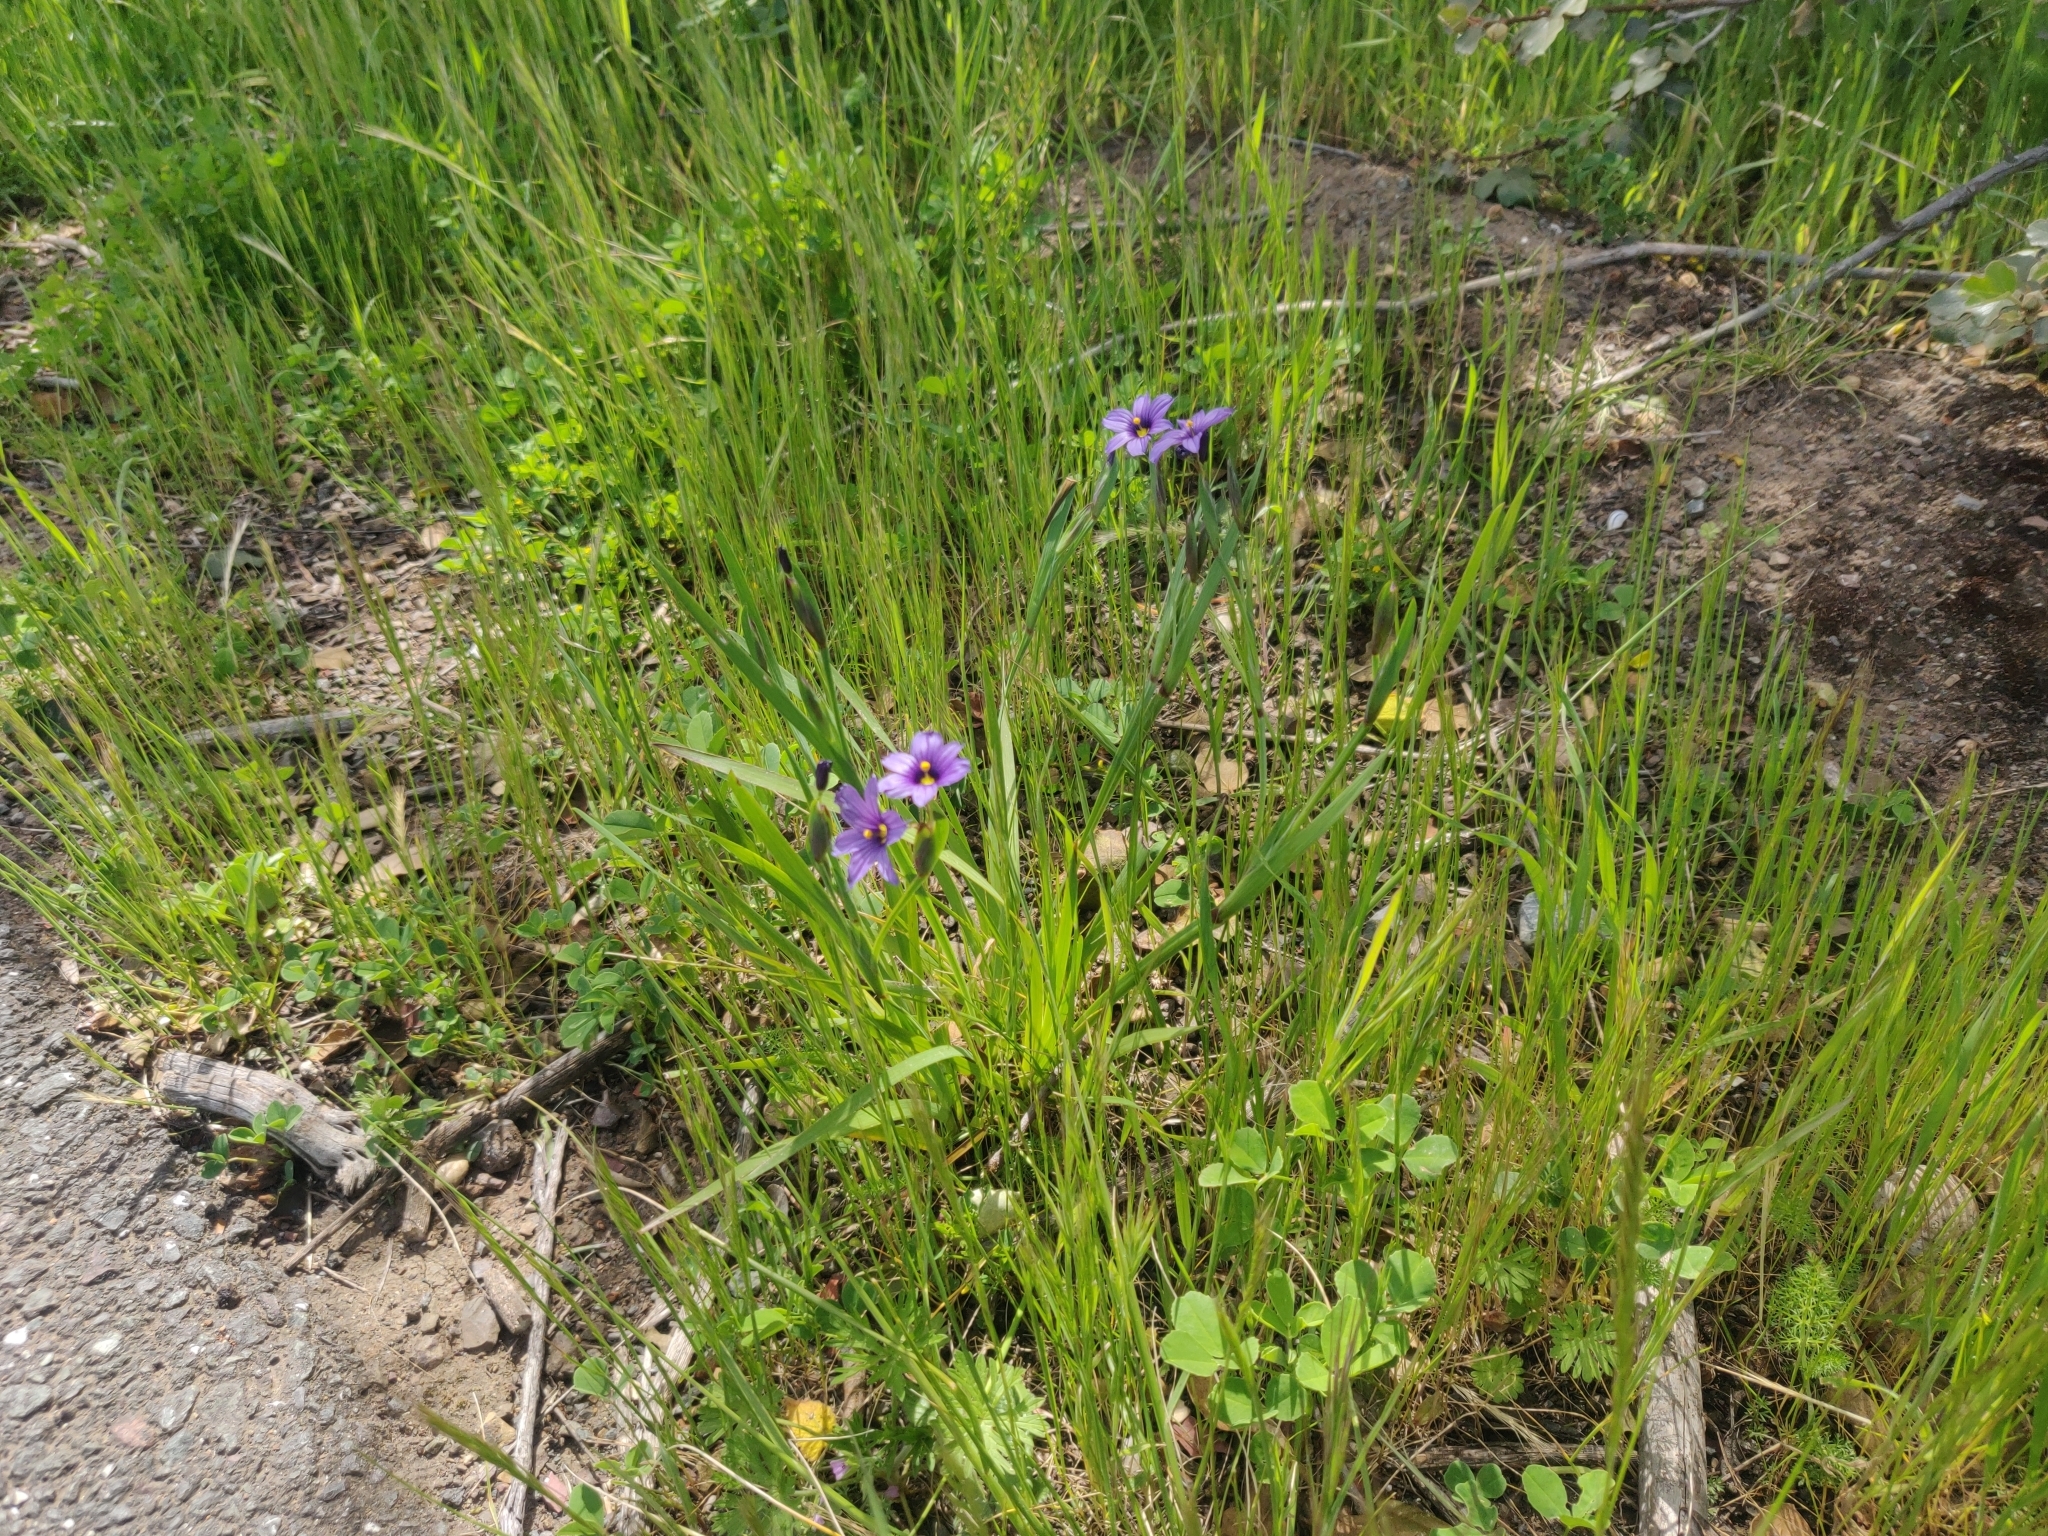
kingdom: Plantae
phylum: Tracheophyta
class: Liliopsida
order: Asparagales
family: Iridaceae
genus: Sisyrinchium
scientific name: Sisyrinchium bellum
